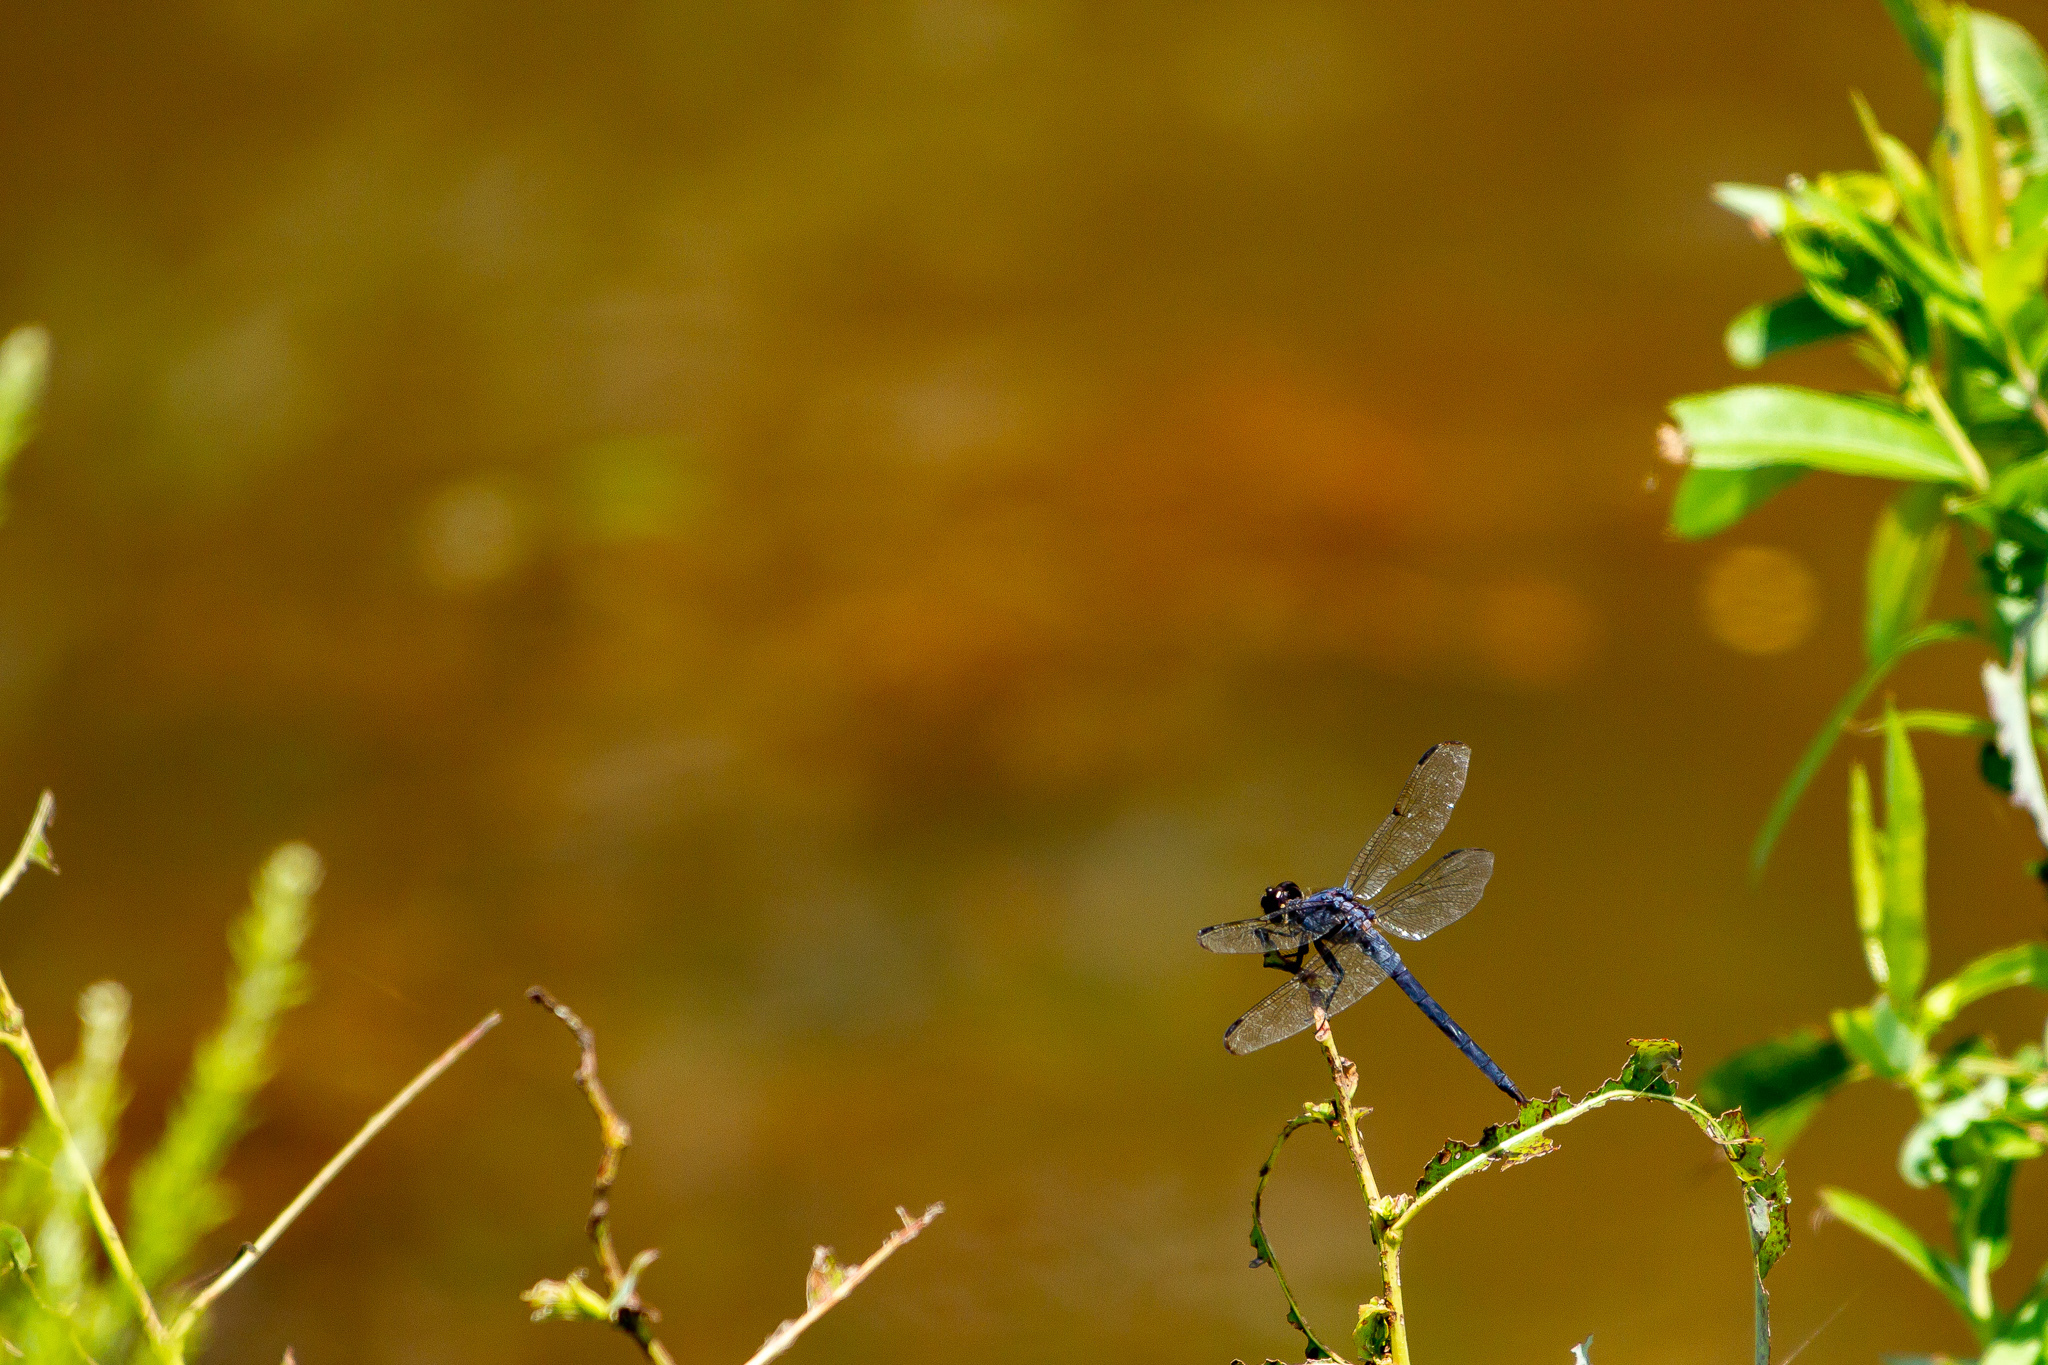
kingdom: Animalia
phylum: Arthropoda
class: Insecta
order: Odonata
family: Libellulidae
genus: Libellula
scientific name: Libellula incesta
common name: Slaty skimmer
